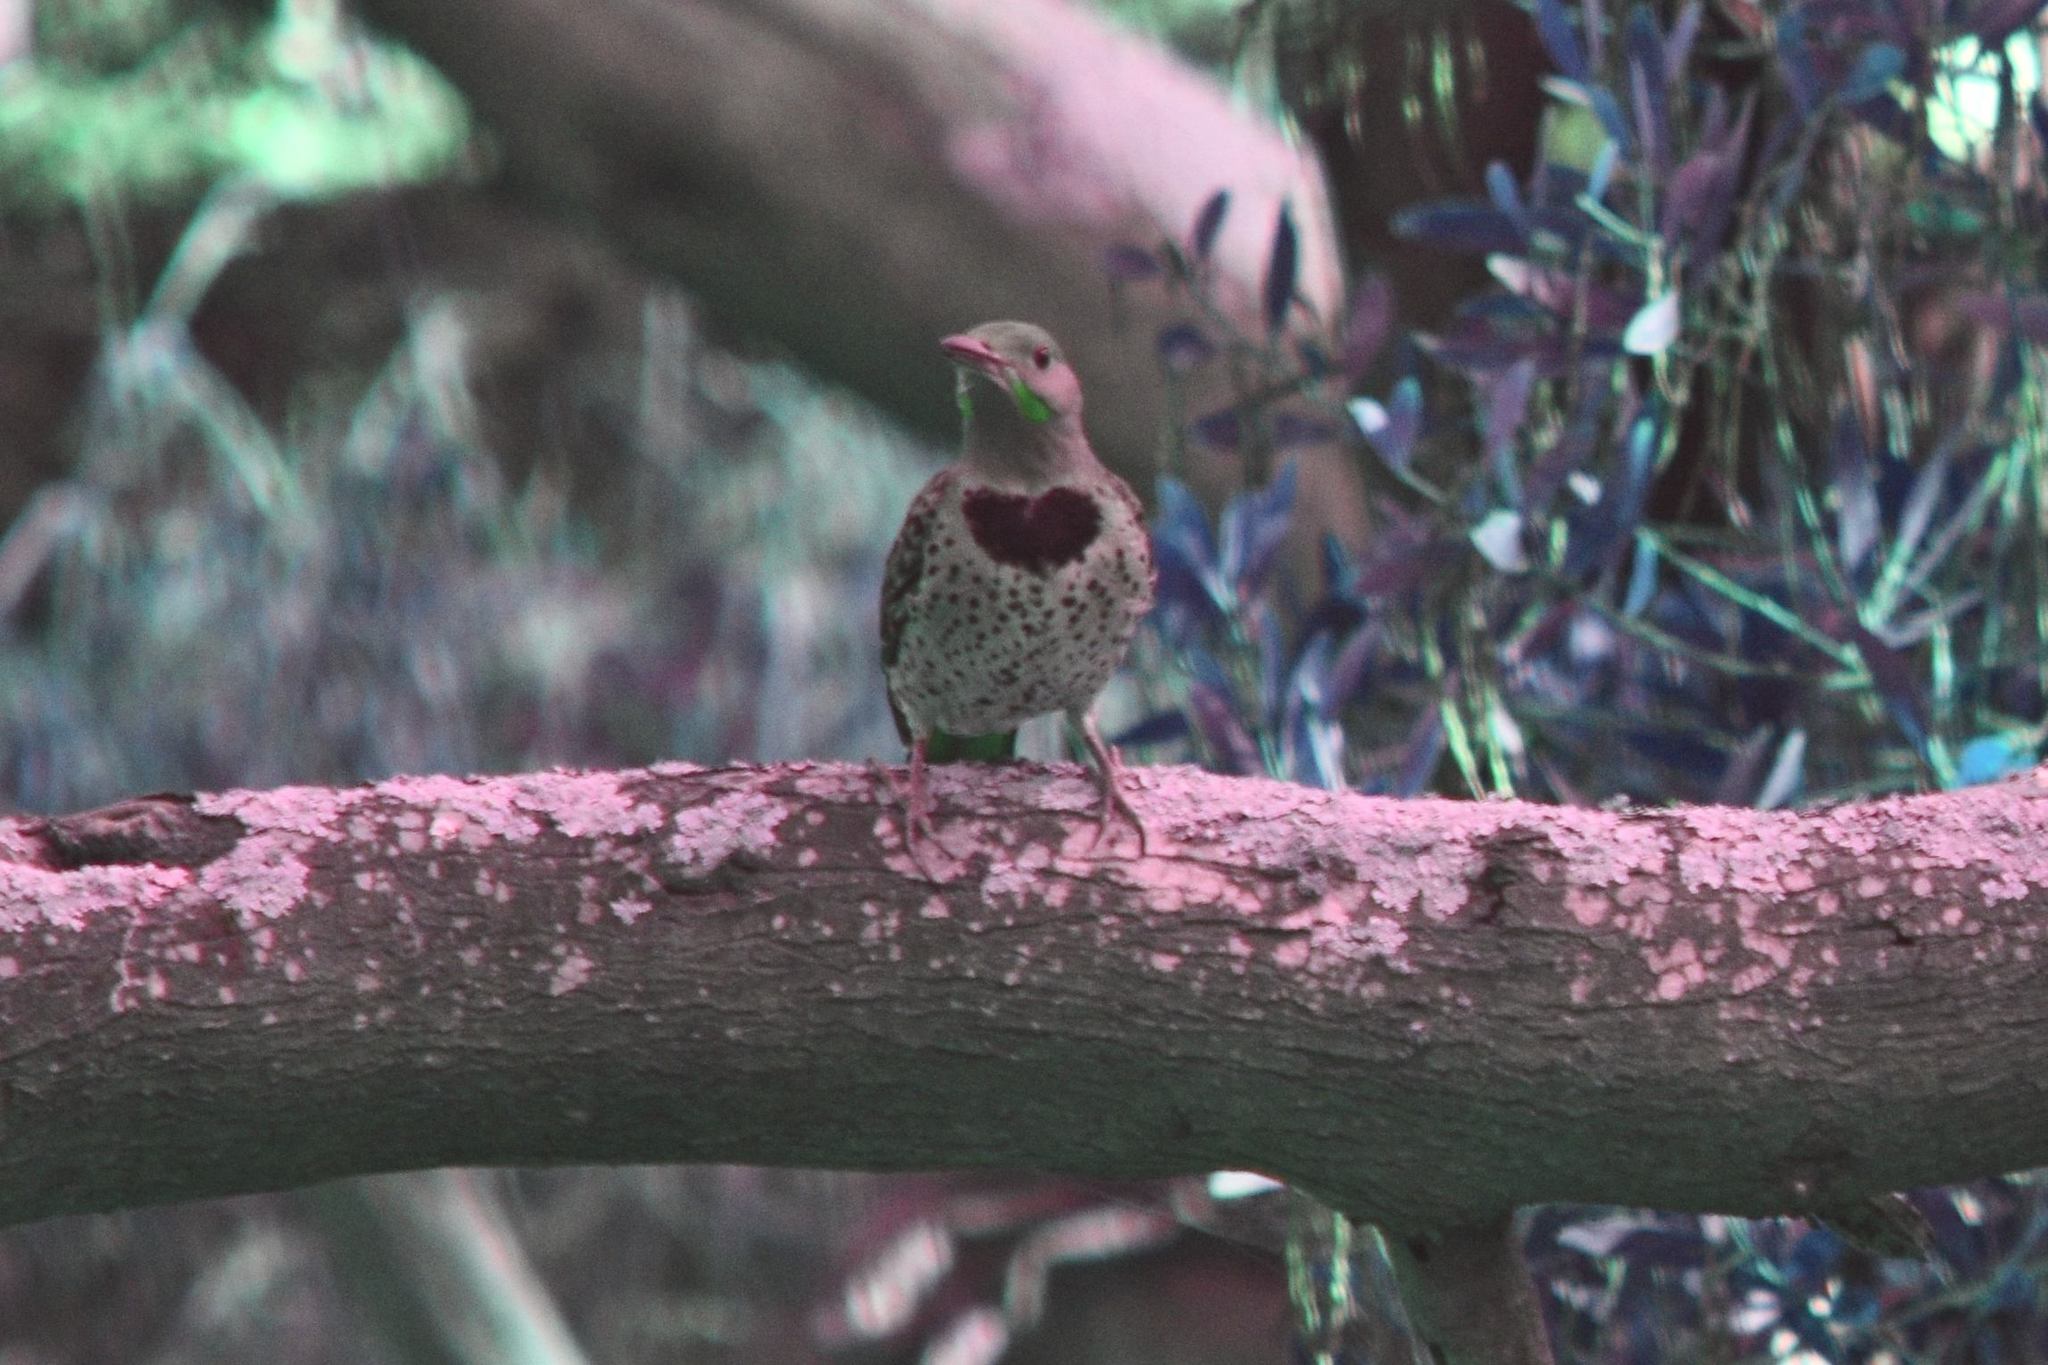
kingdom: Animalia
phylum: Chordata
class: Aves
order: Piciformes
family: Picidae
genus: Colaptes
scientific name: Colaptes auratus
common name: Northern flicker
